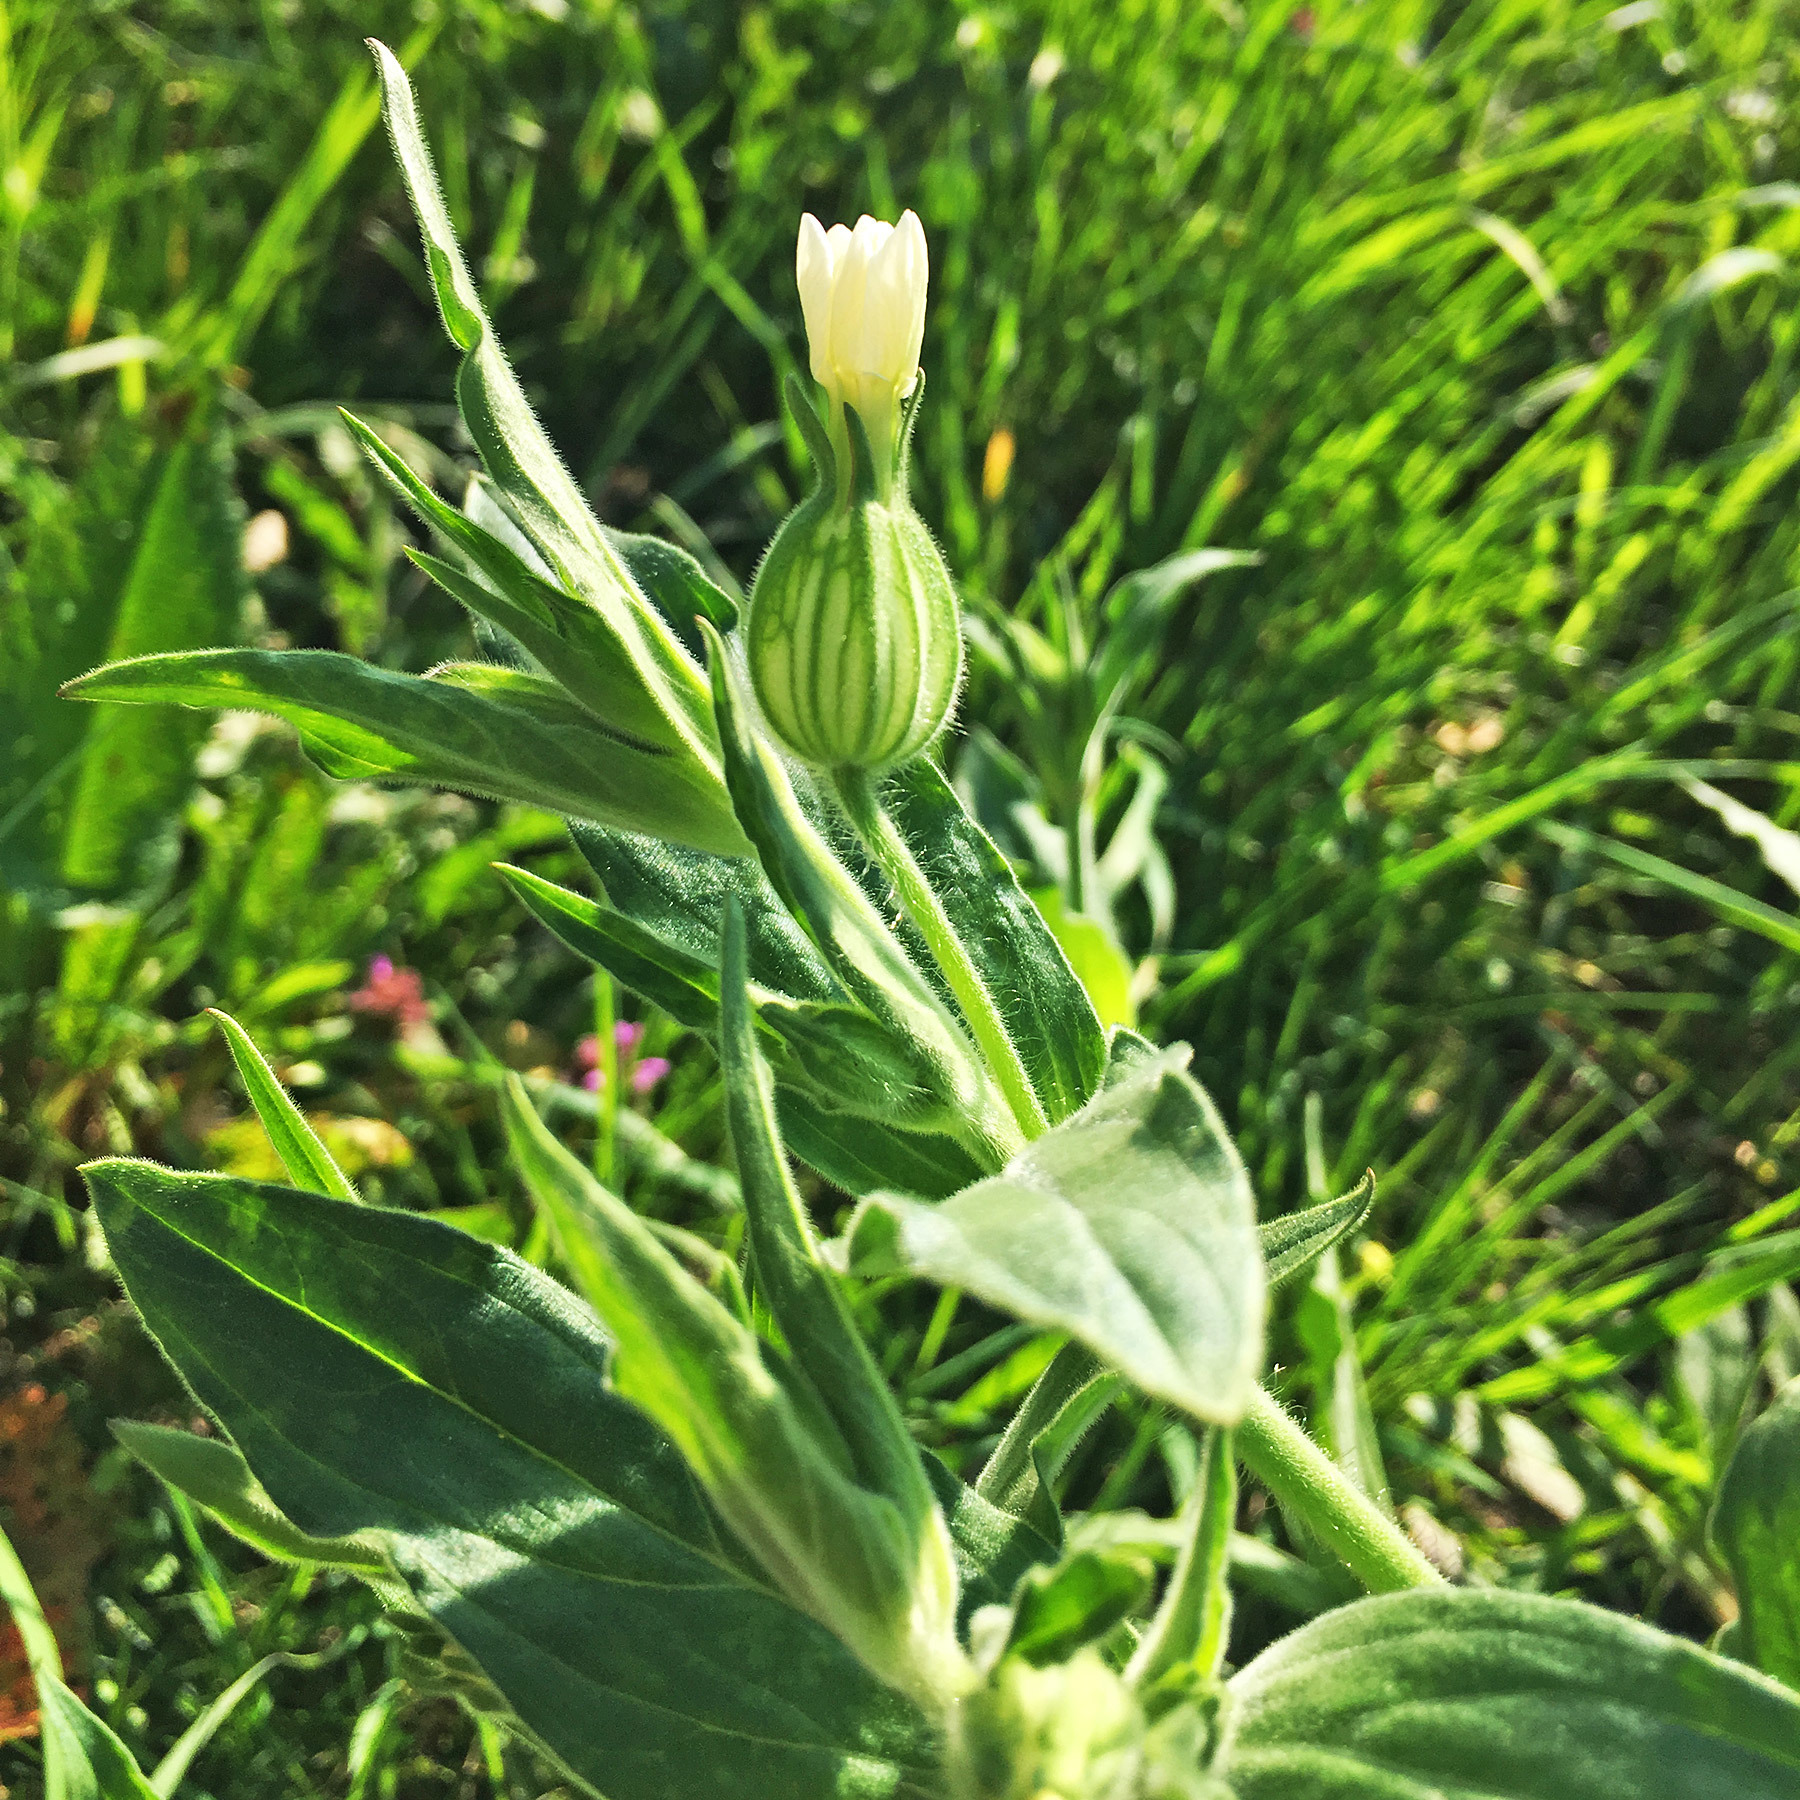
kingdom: Plantae
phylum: Tracheophyta
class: Magnoliopsida
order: Caryophyllales
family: Caryophyllaceae
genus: Silene
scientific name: Silene latifolia
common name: White campion
